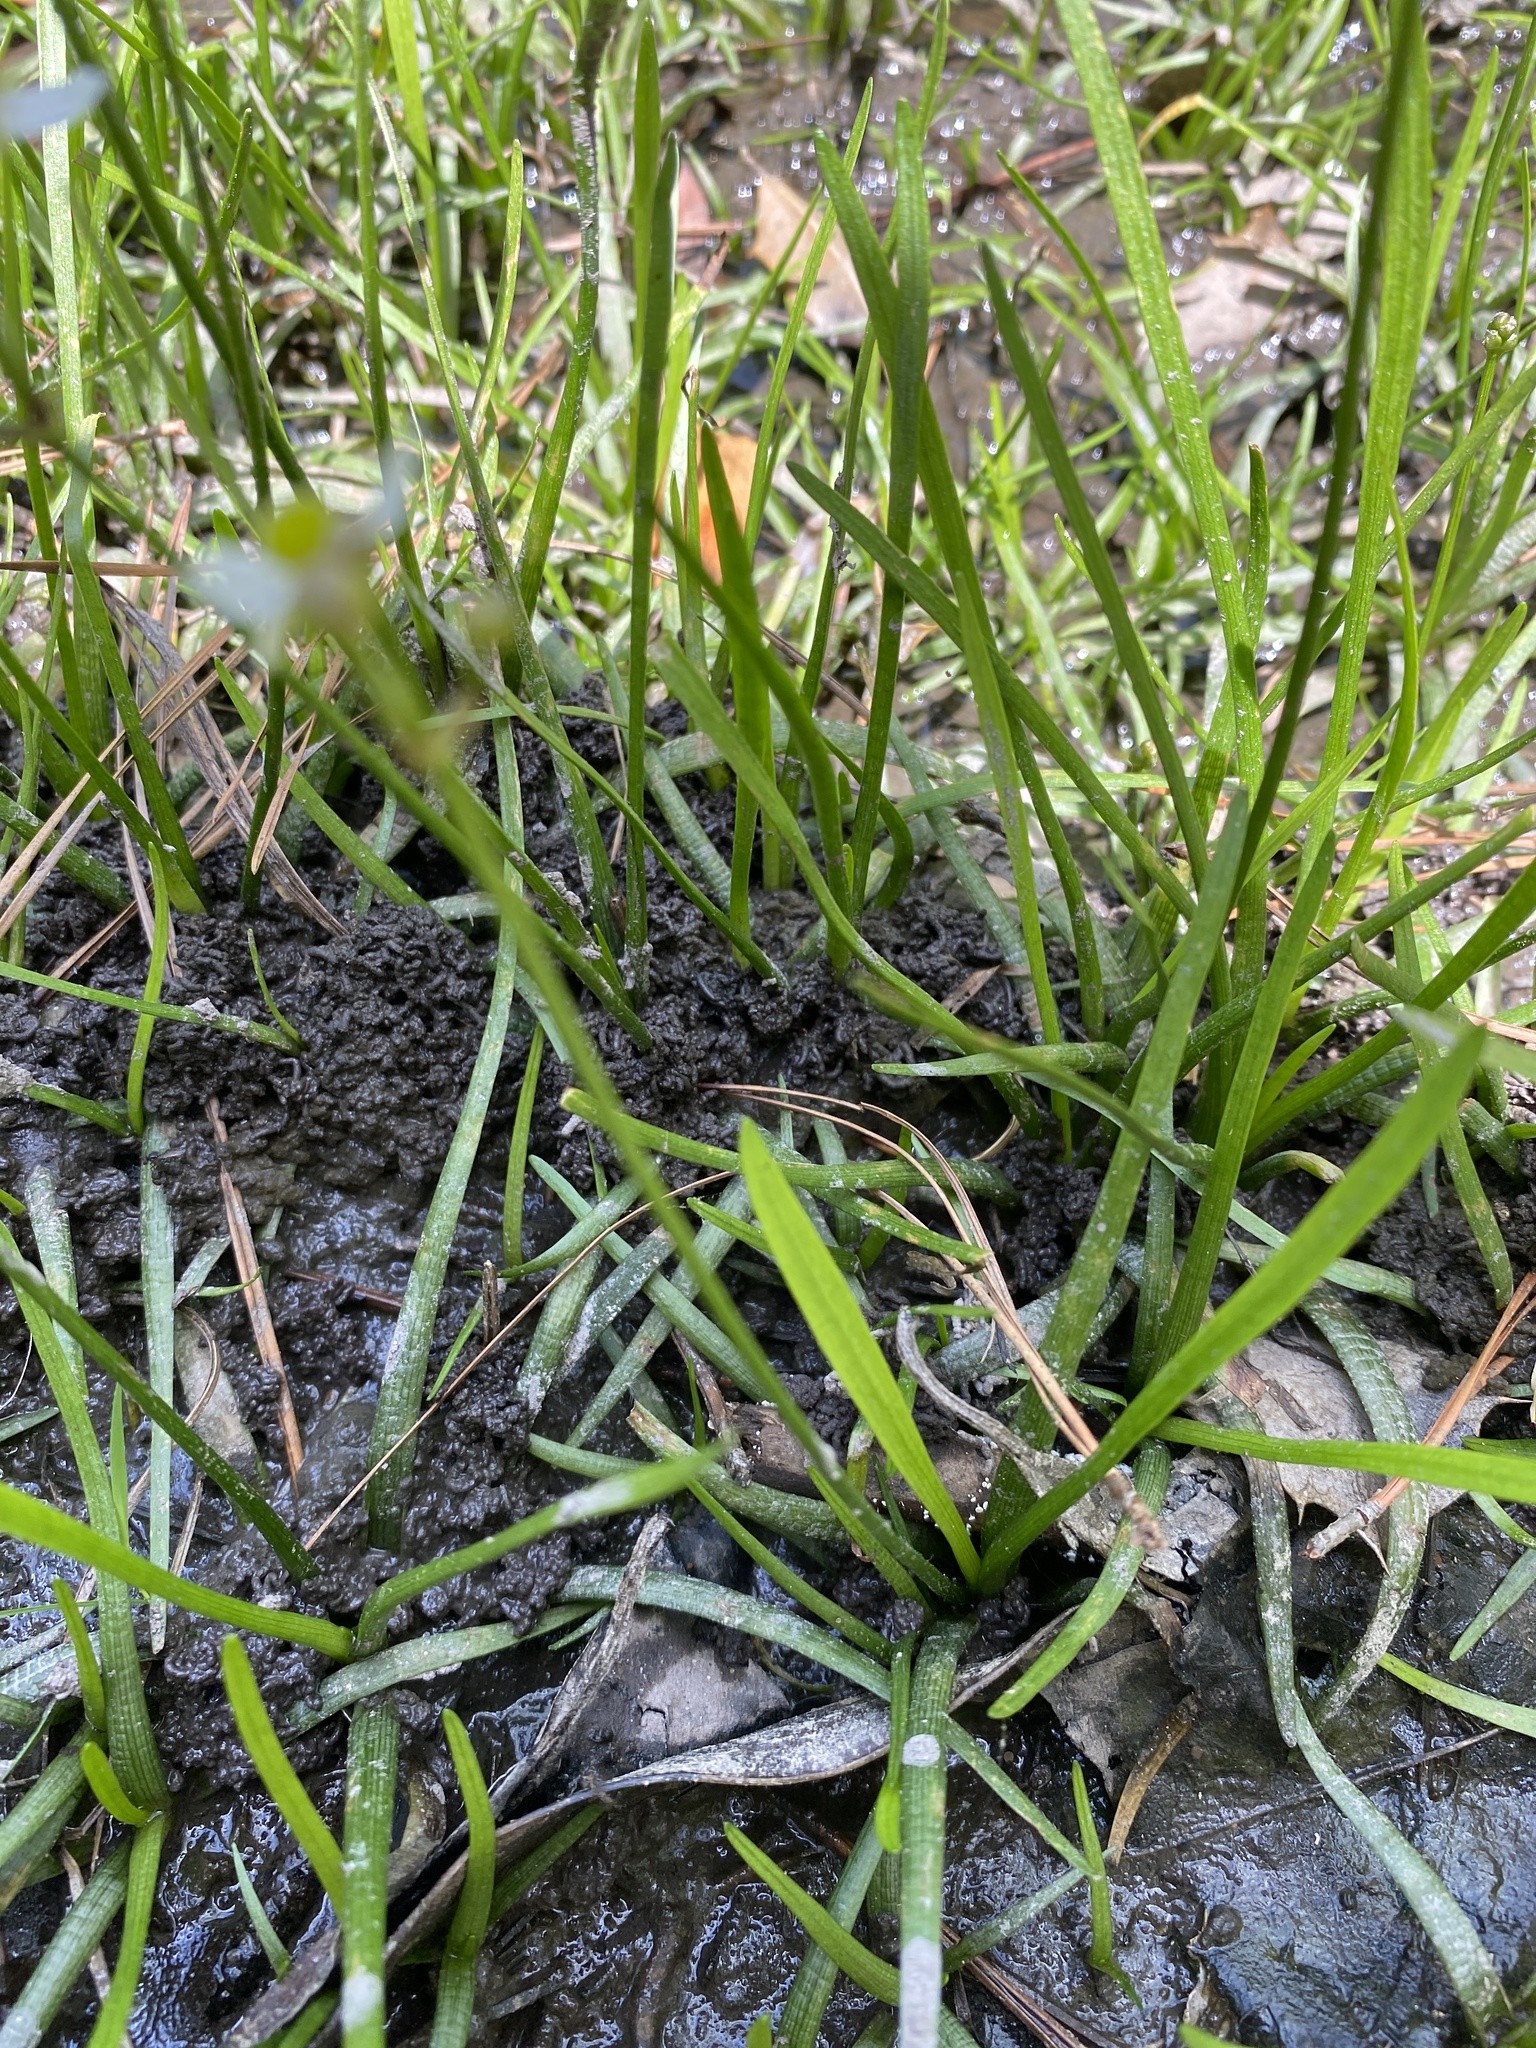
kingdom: Plantae
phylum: Tracheophyta
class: Liliopsida
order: Alismatales
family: Alismataceae
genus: Sagittaria
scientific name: Sagittaria macrocarpa
